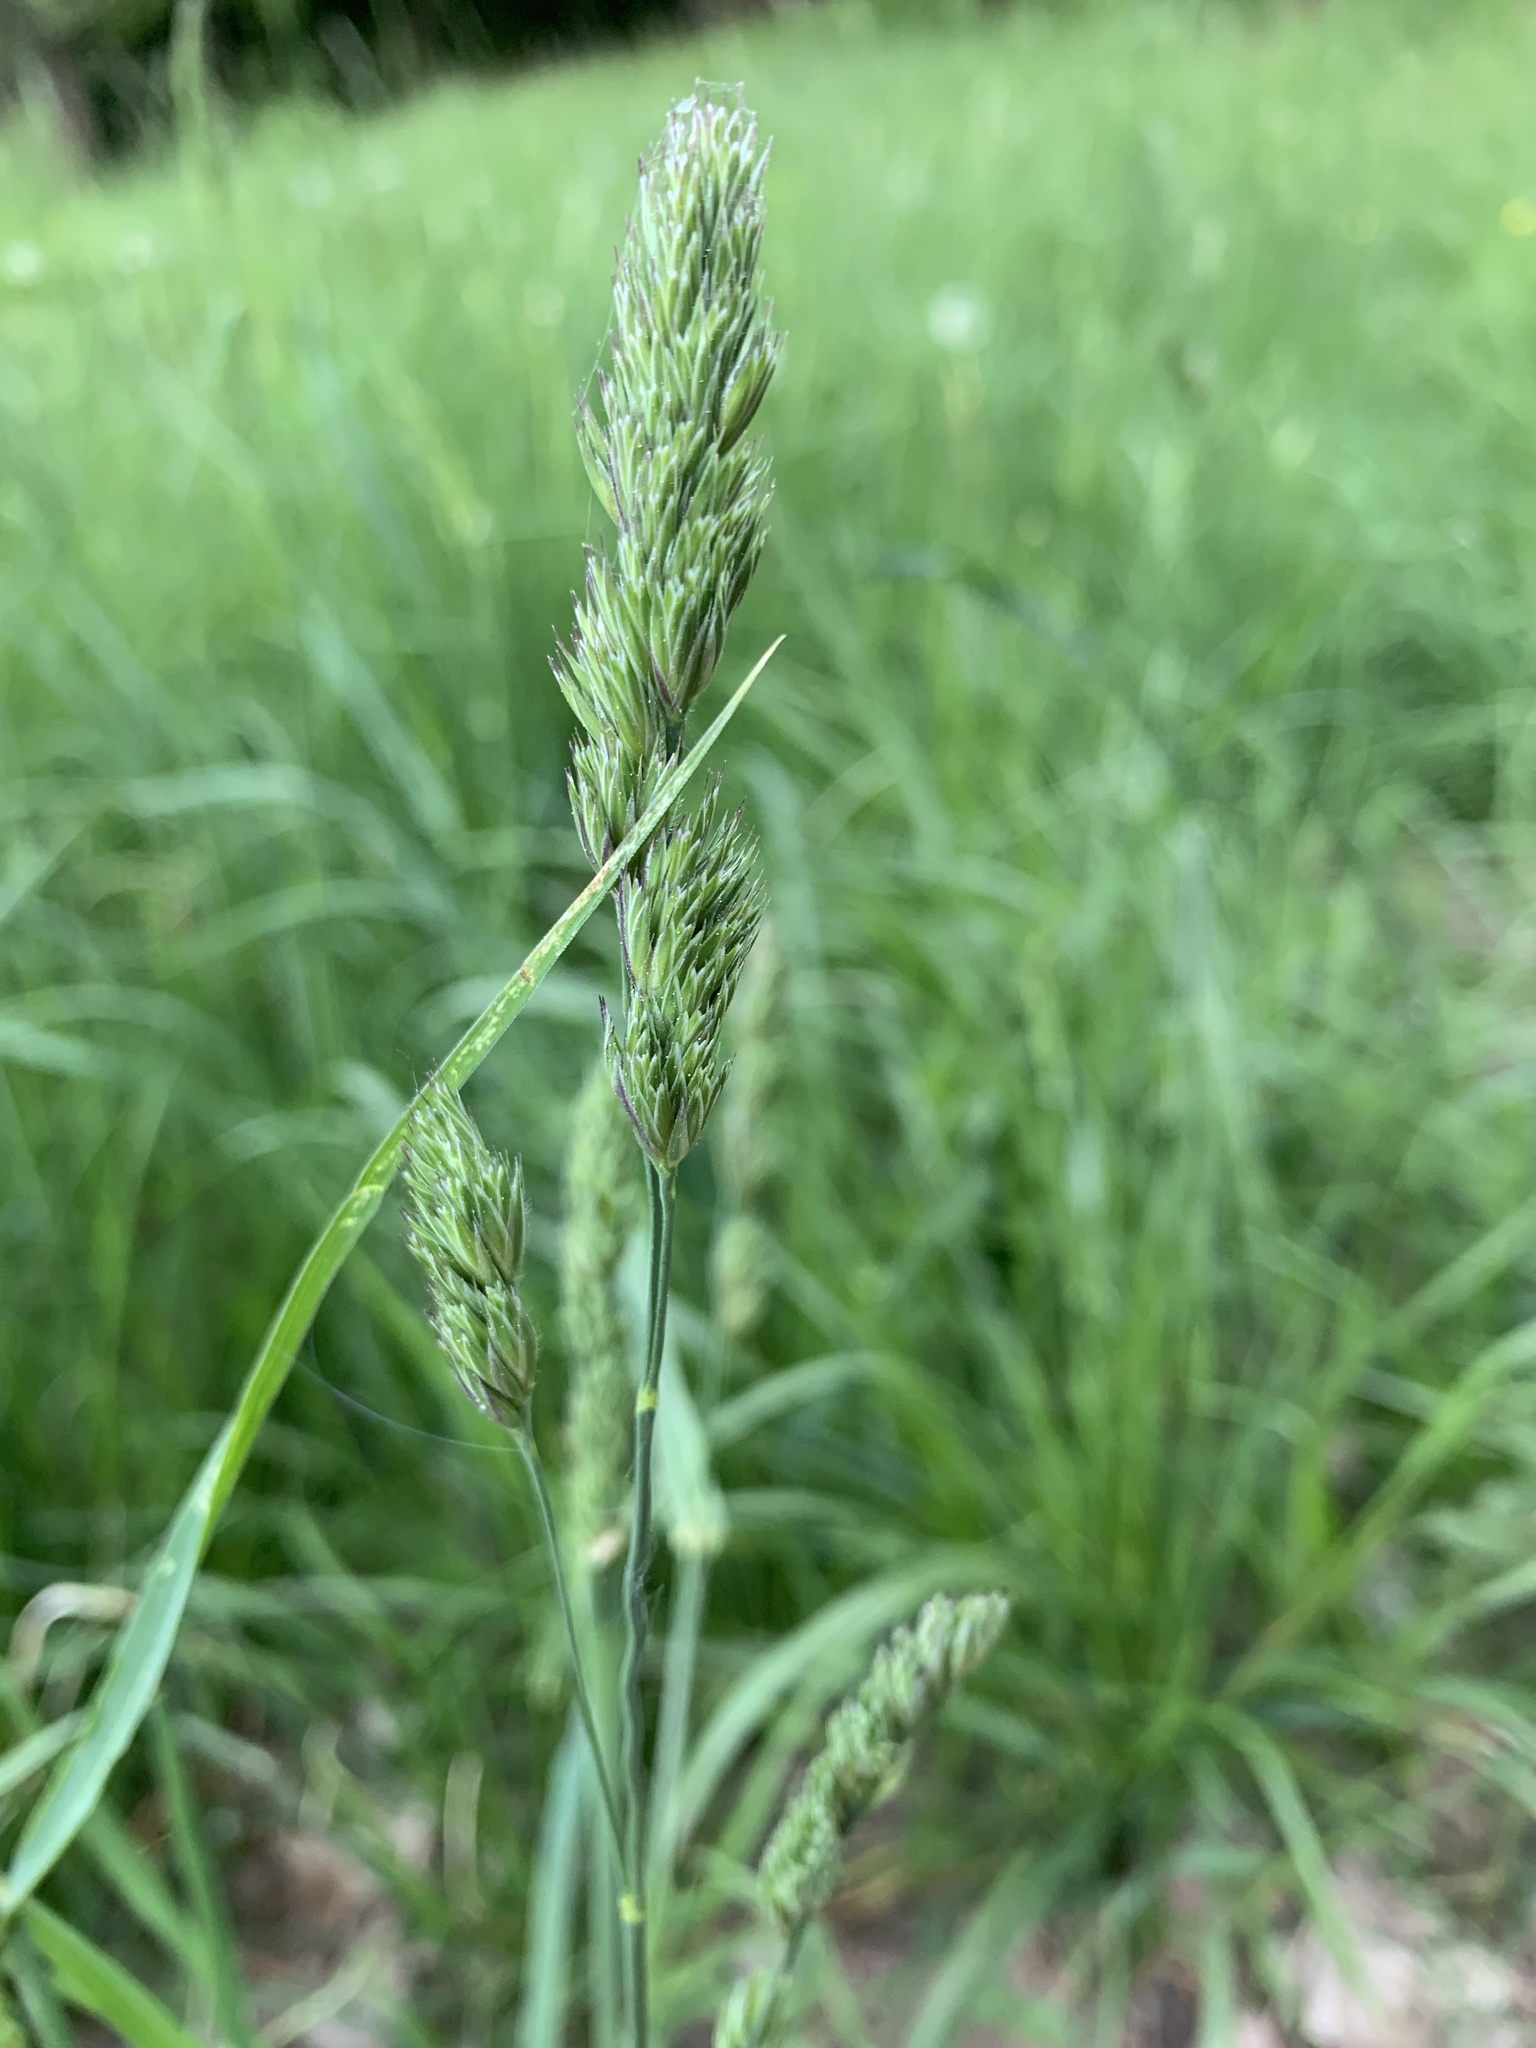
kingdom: Plantae
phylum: Tracheophyta
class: Liliopsida
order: Poales
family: Poaceae
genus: Dactylis
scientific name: Dactylis glomerata
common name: Orchardgrass
